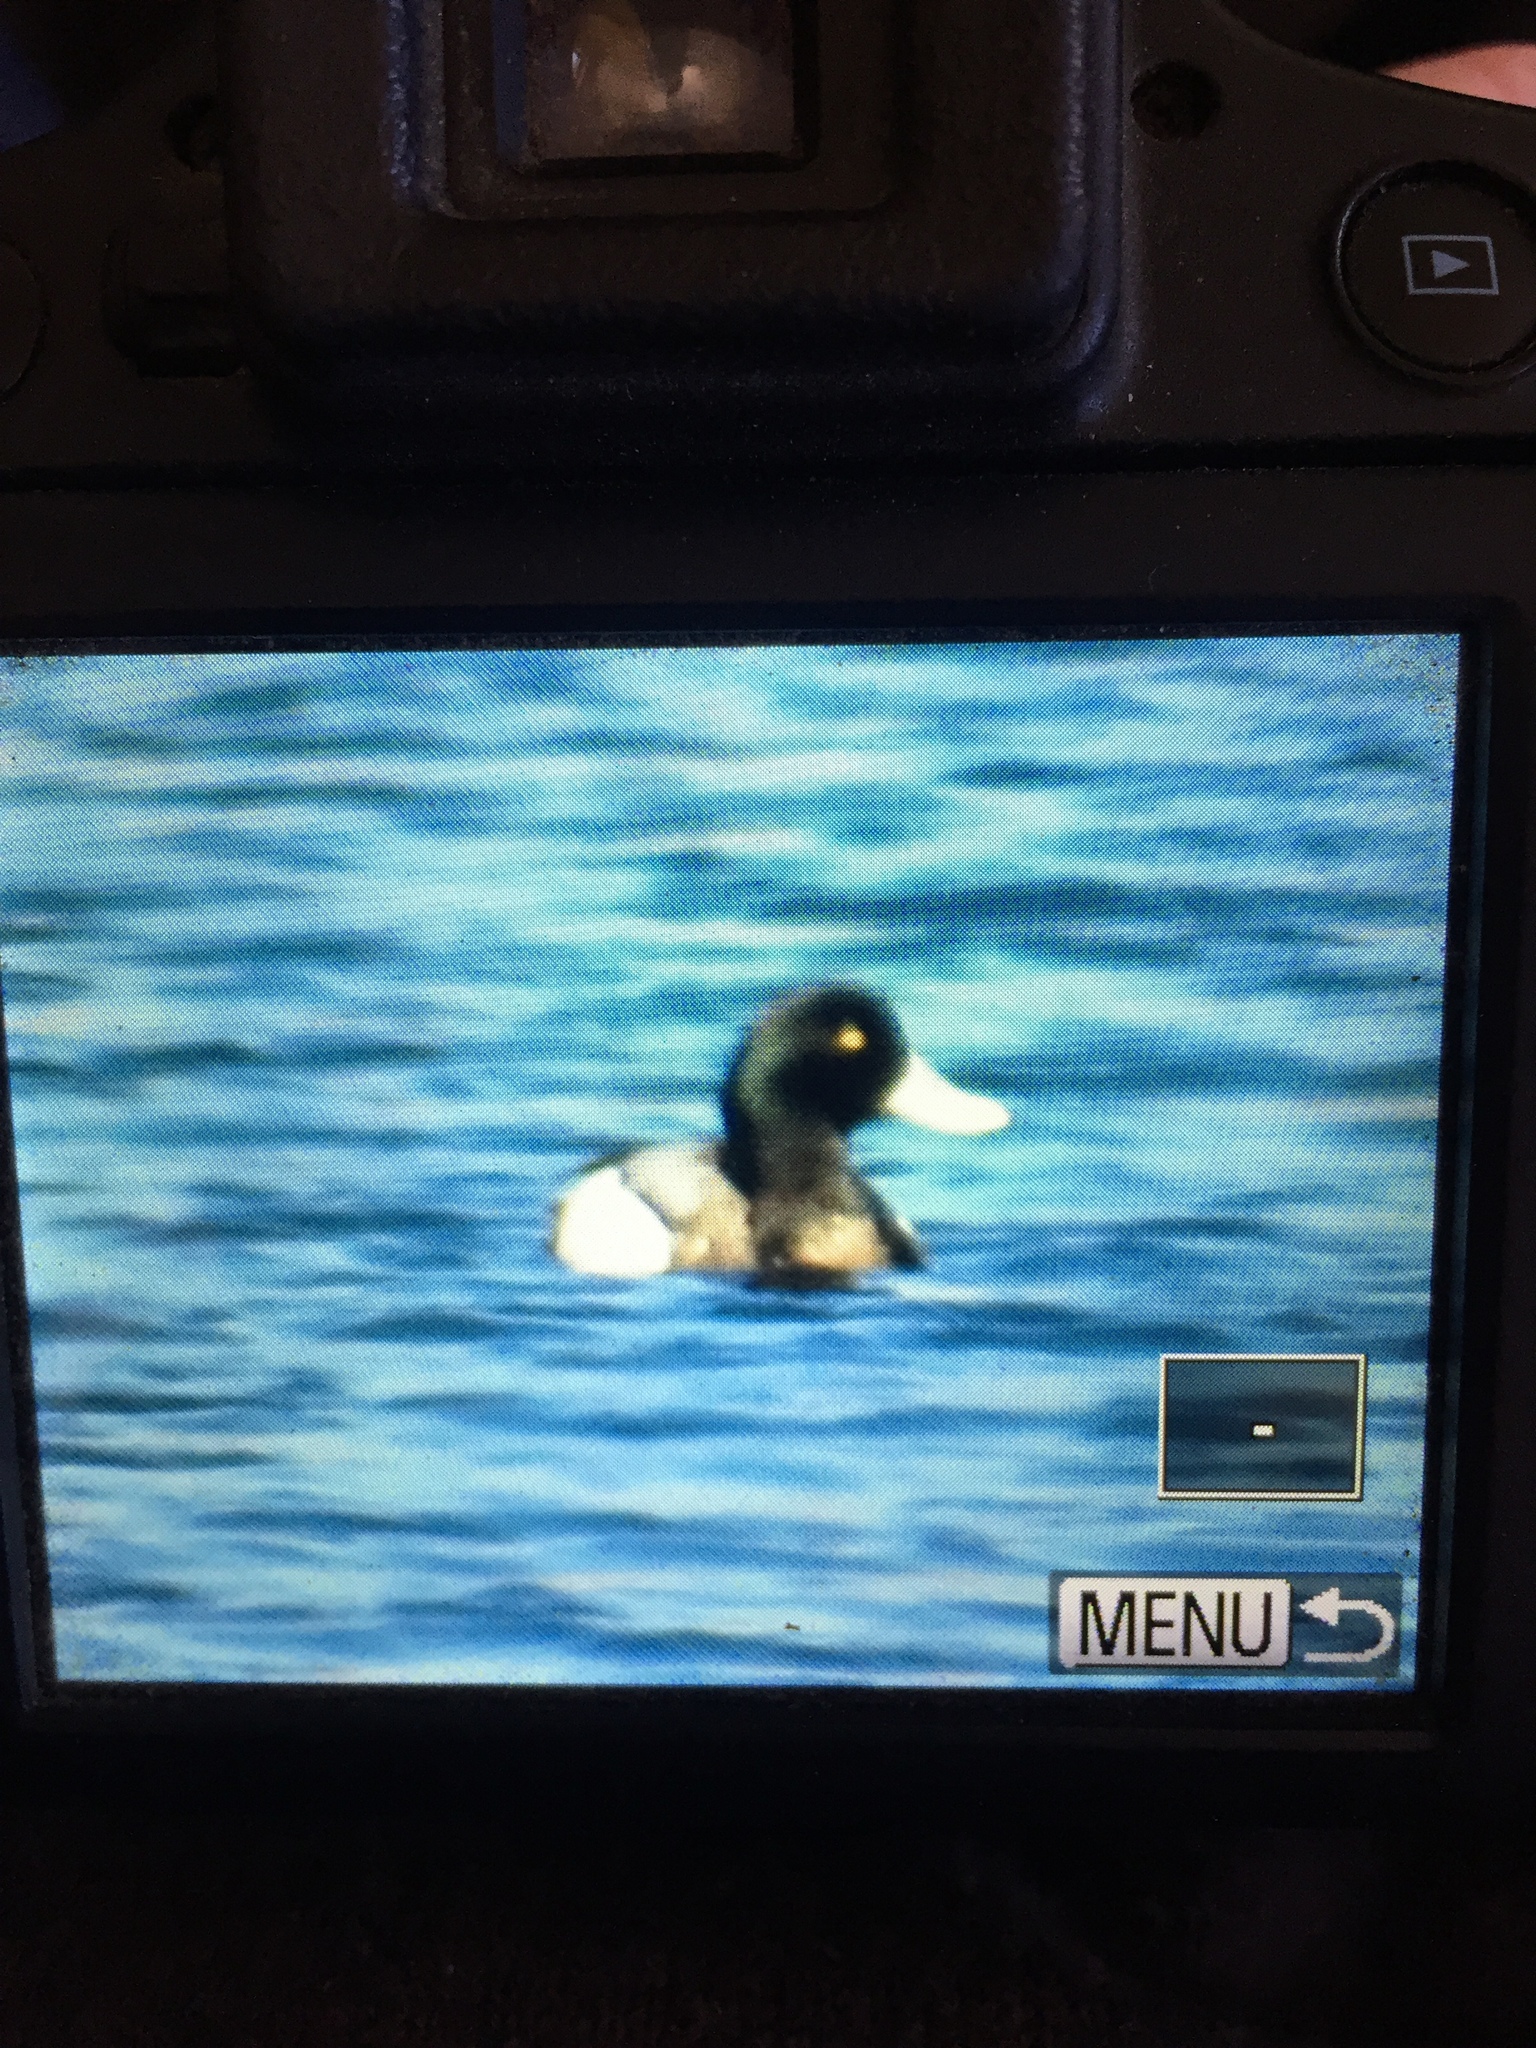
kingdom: Animalia
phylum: Chordata
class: Aves
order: Anseriformes
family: Anatidae
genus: Aythya
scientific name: Aythya marila
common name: Greater scaup
